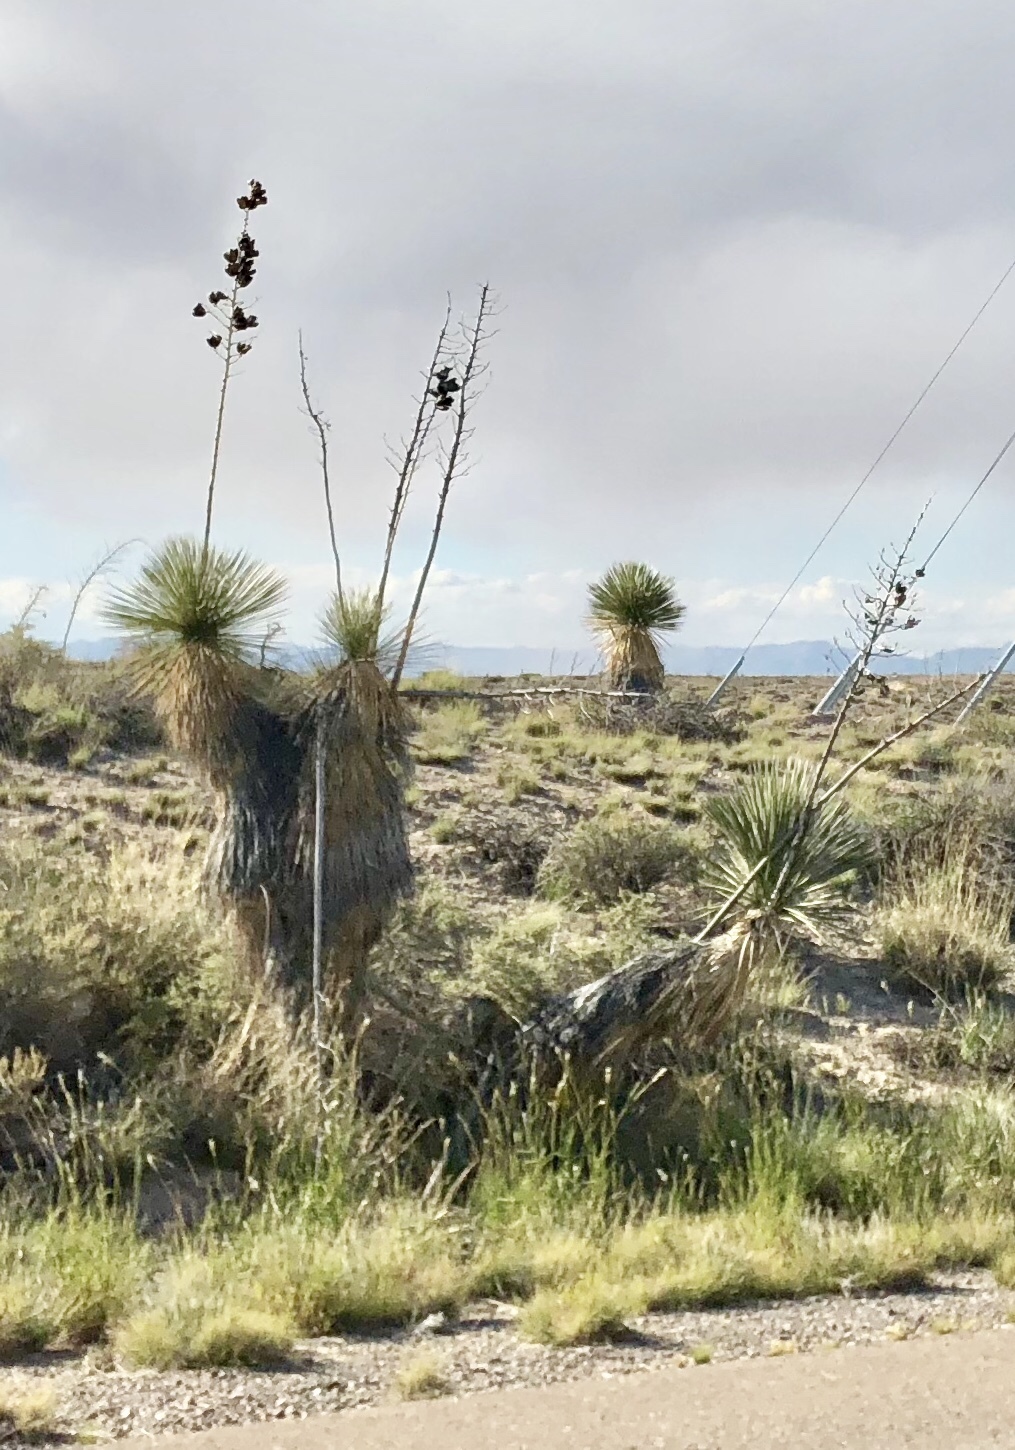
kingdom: Plantae
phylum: Tracheophyta
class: Liliopsida
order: Asparagales
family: Asparagaceae
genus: Yucca
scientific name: Yucca elata
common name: Palmella
